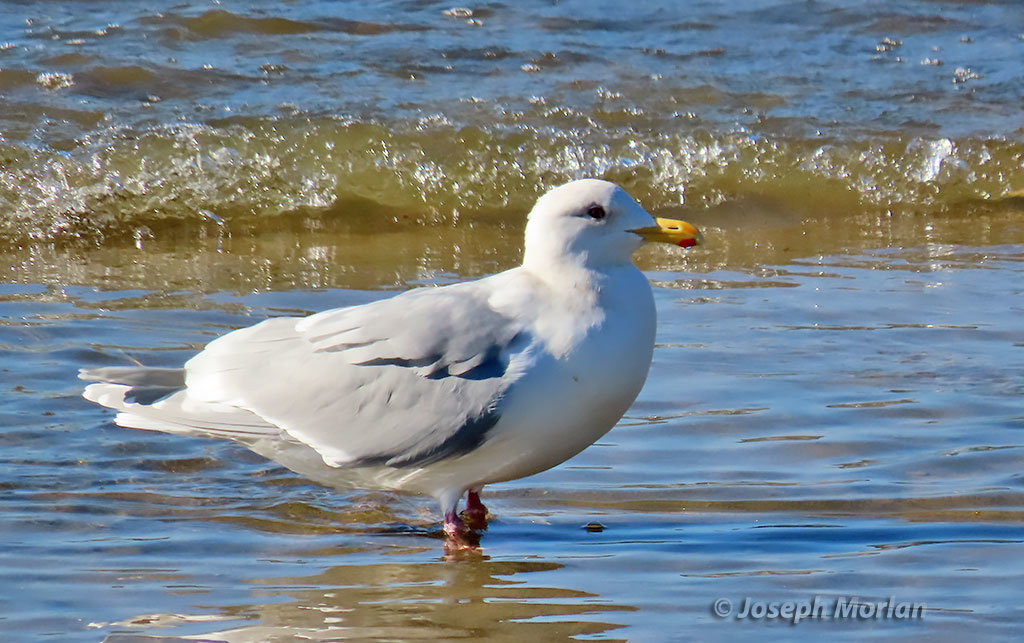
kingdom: Animalia
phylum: Chordata
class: Aves
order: Charadriiformes
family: Laridae
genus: Larus
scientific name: Larus glaucescens
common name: Glaucous-winged gull
